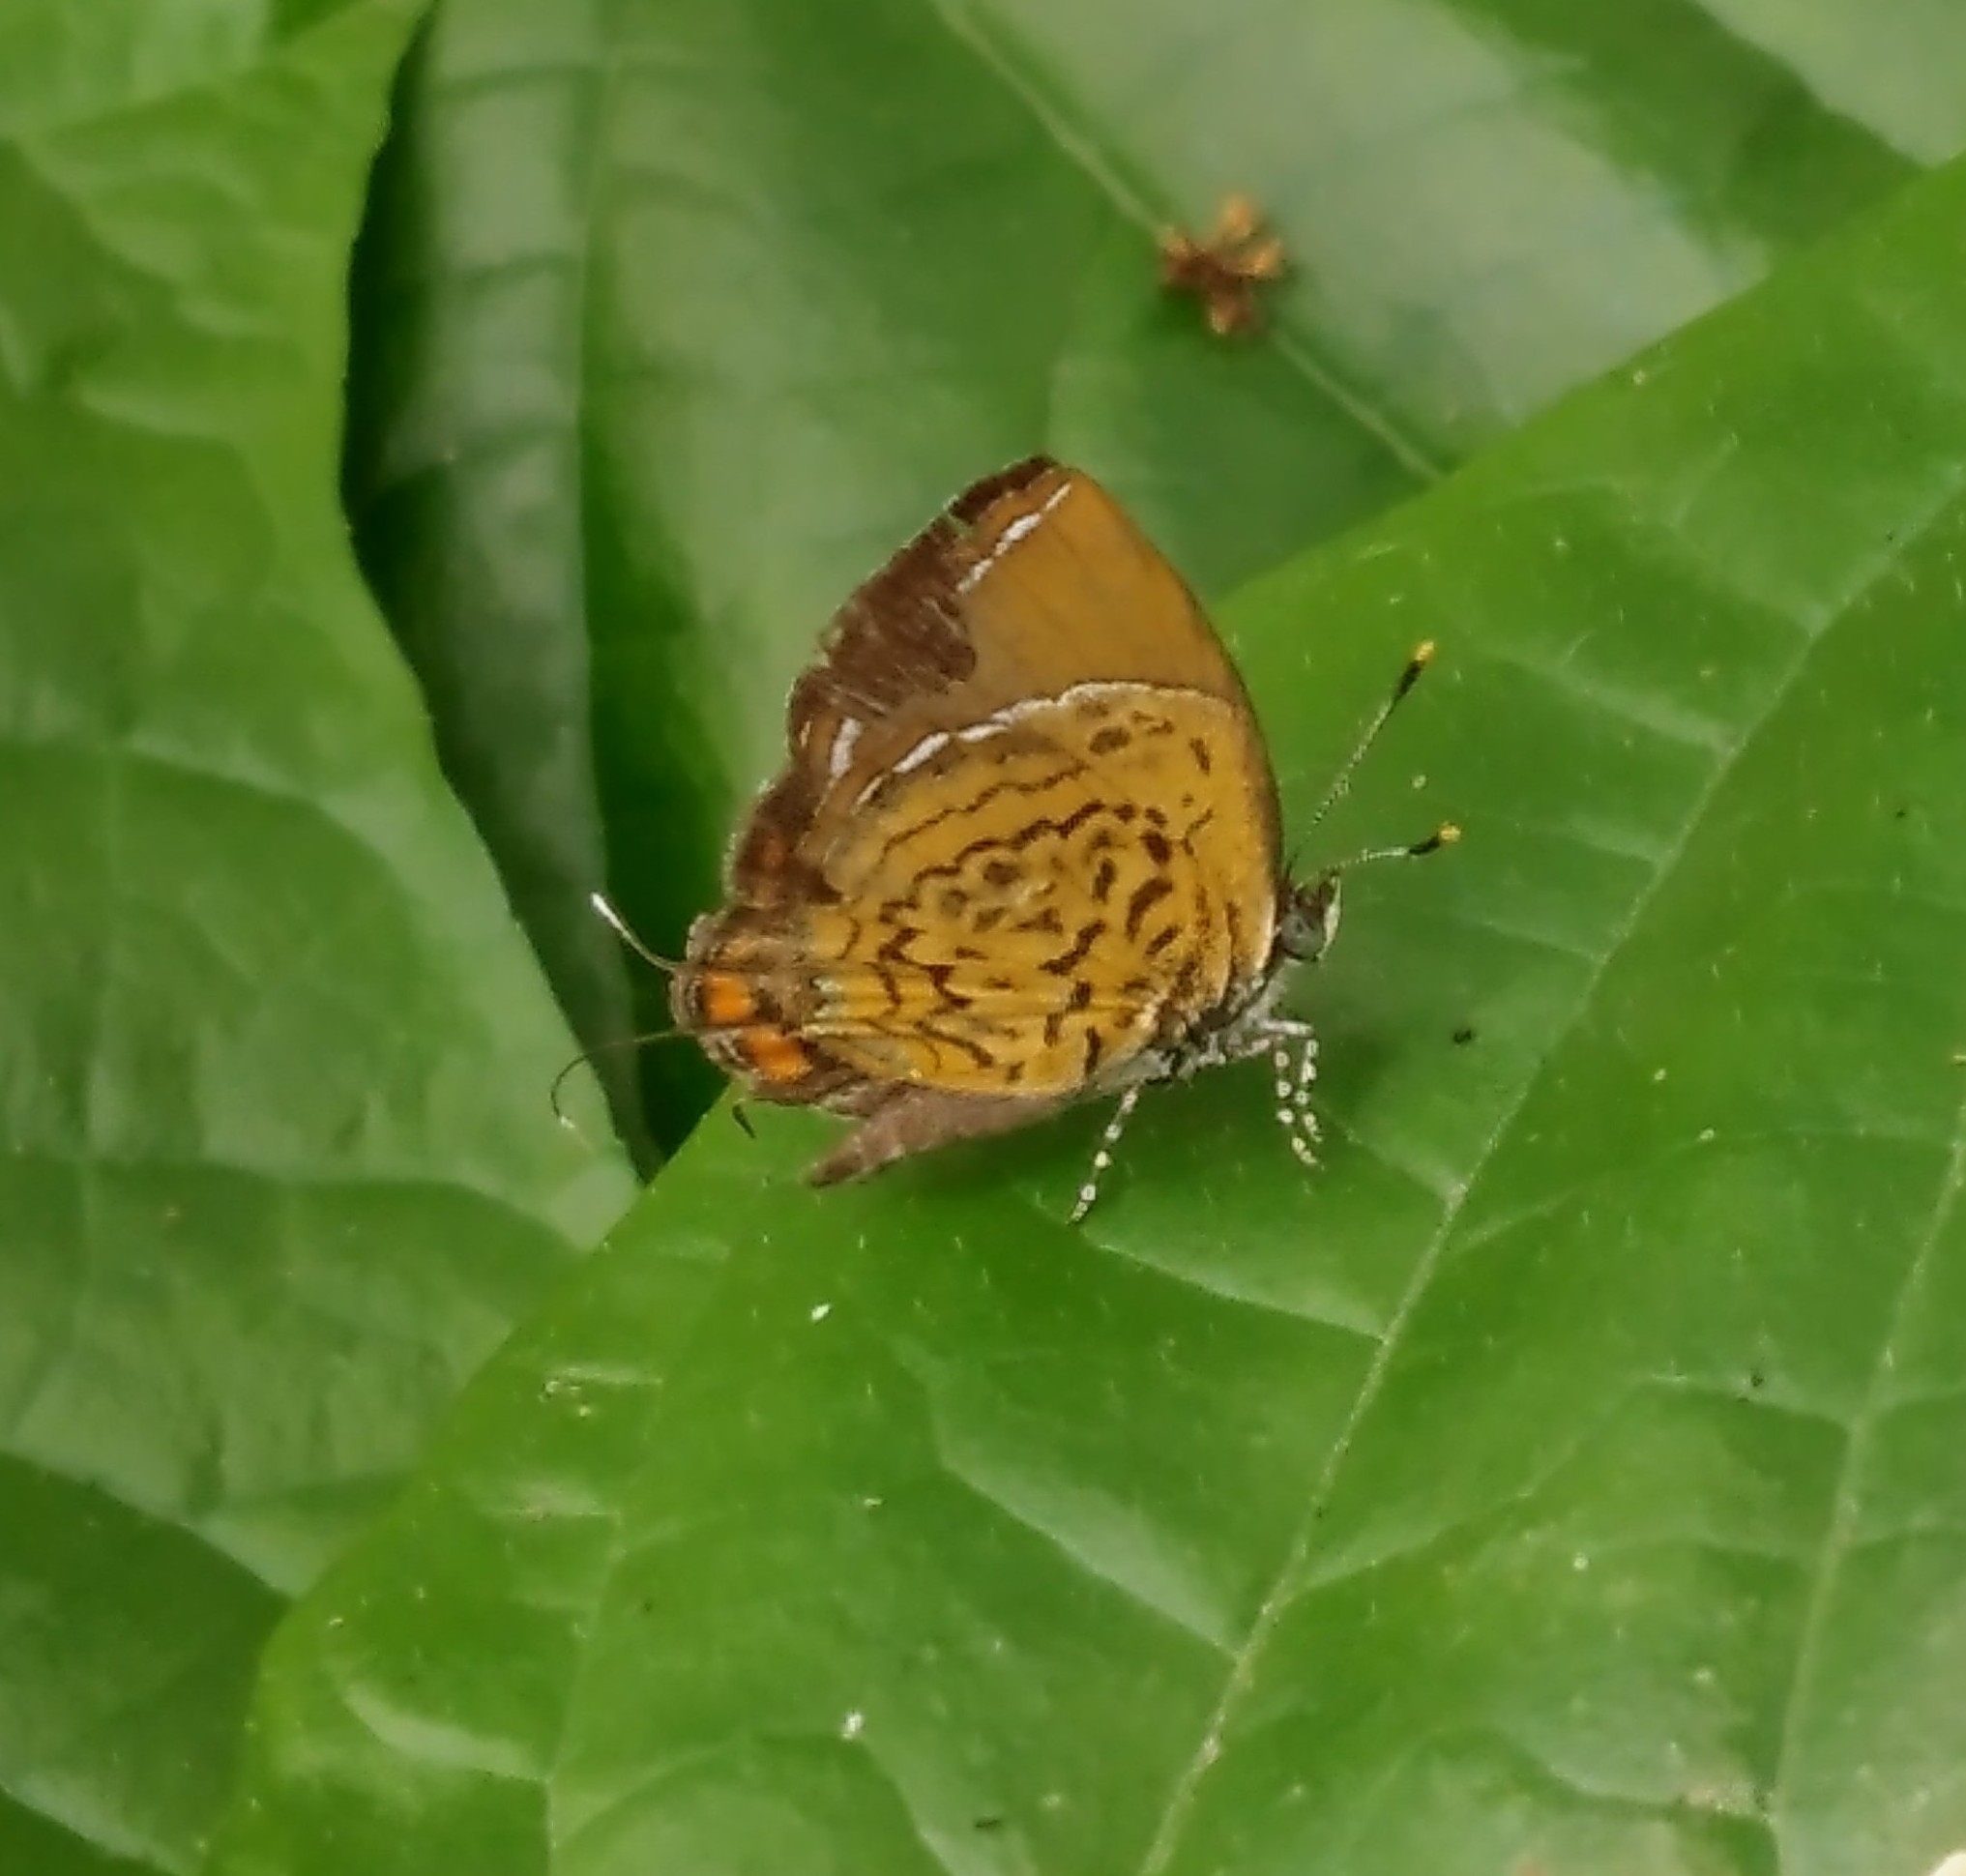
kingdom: Animalia
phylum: Arthropoda
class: Insecta
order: Lepidoptera
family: Lycaenidae
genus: Rathinda
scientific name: Rathinda amor
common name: Monkey puzzle
